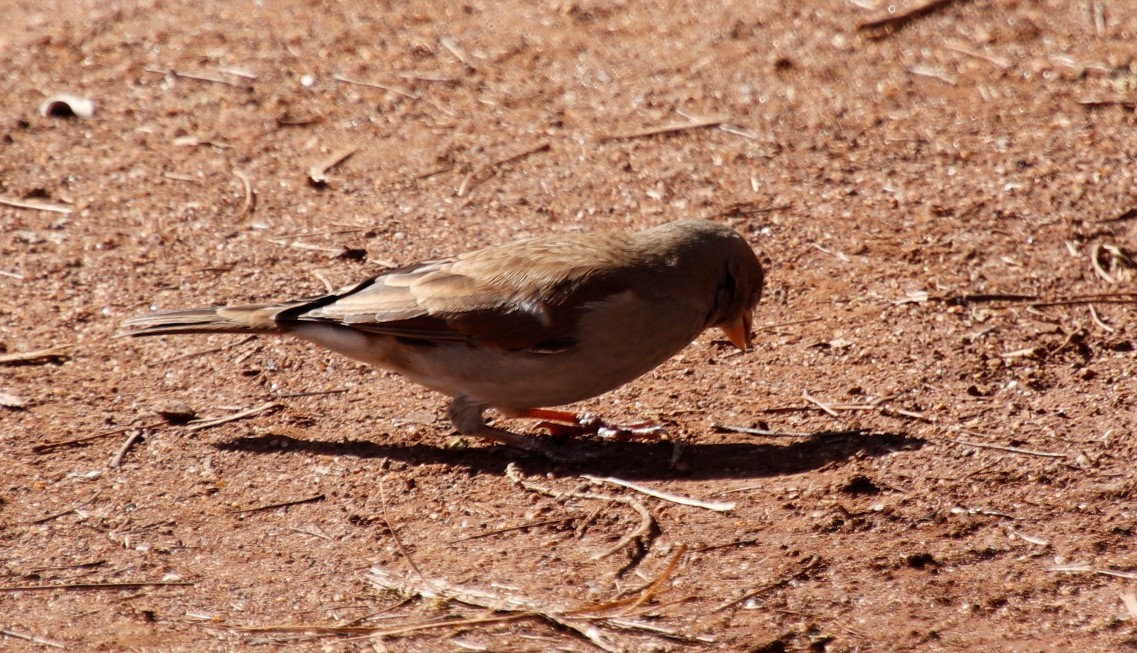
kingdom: Animalia
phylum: Chordata
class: Aves
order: Passeriformes
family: Passeridae
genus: Passer
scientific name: Passer diffusus
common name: Southern grey-headed sparrow
